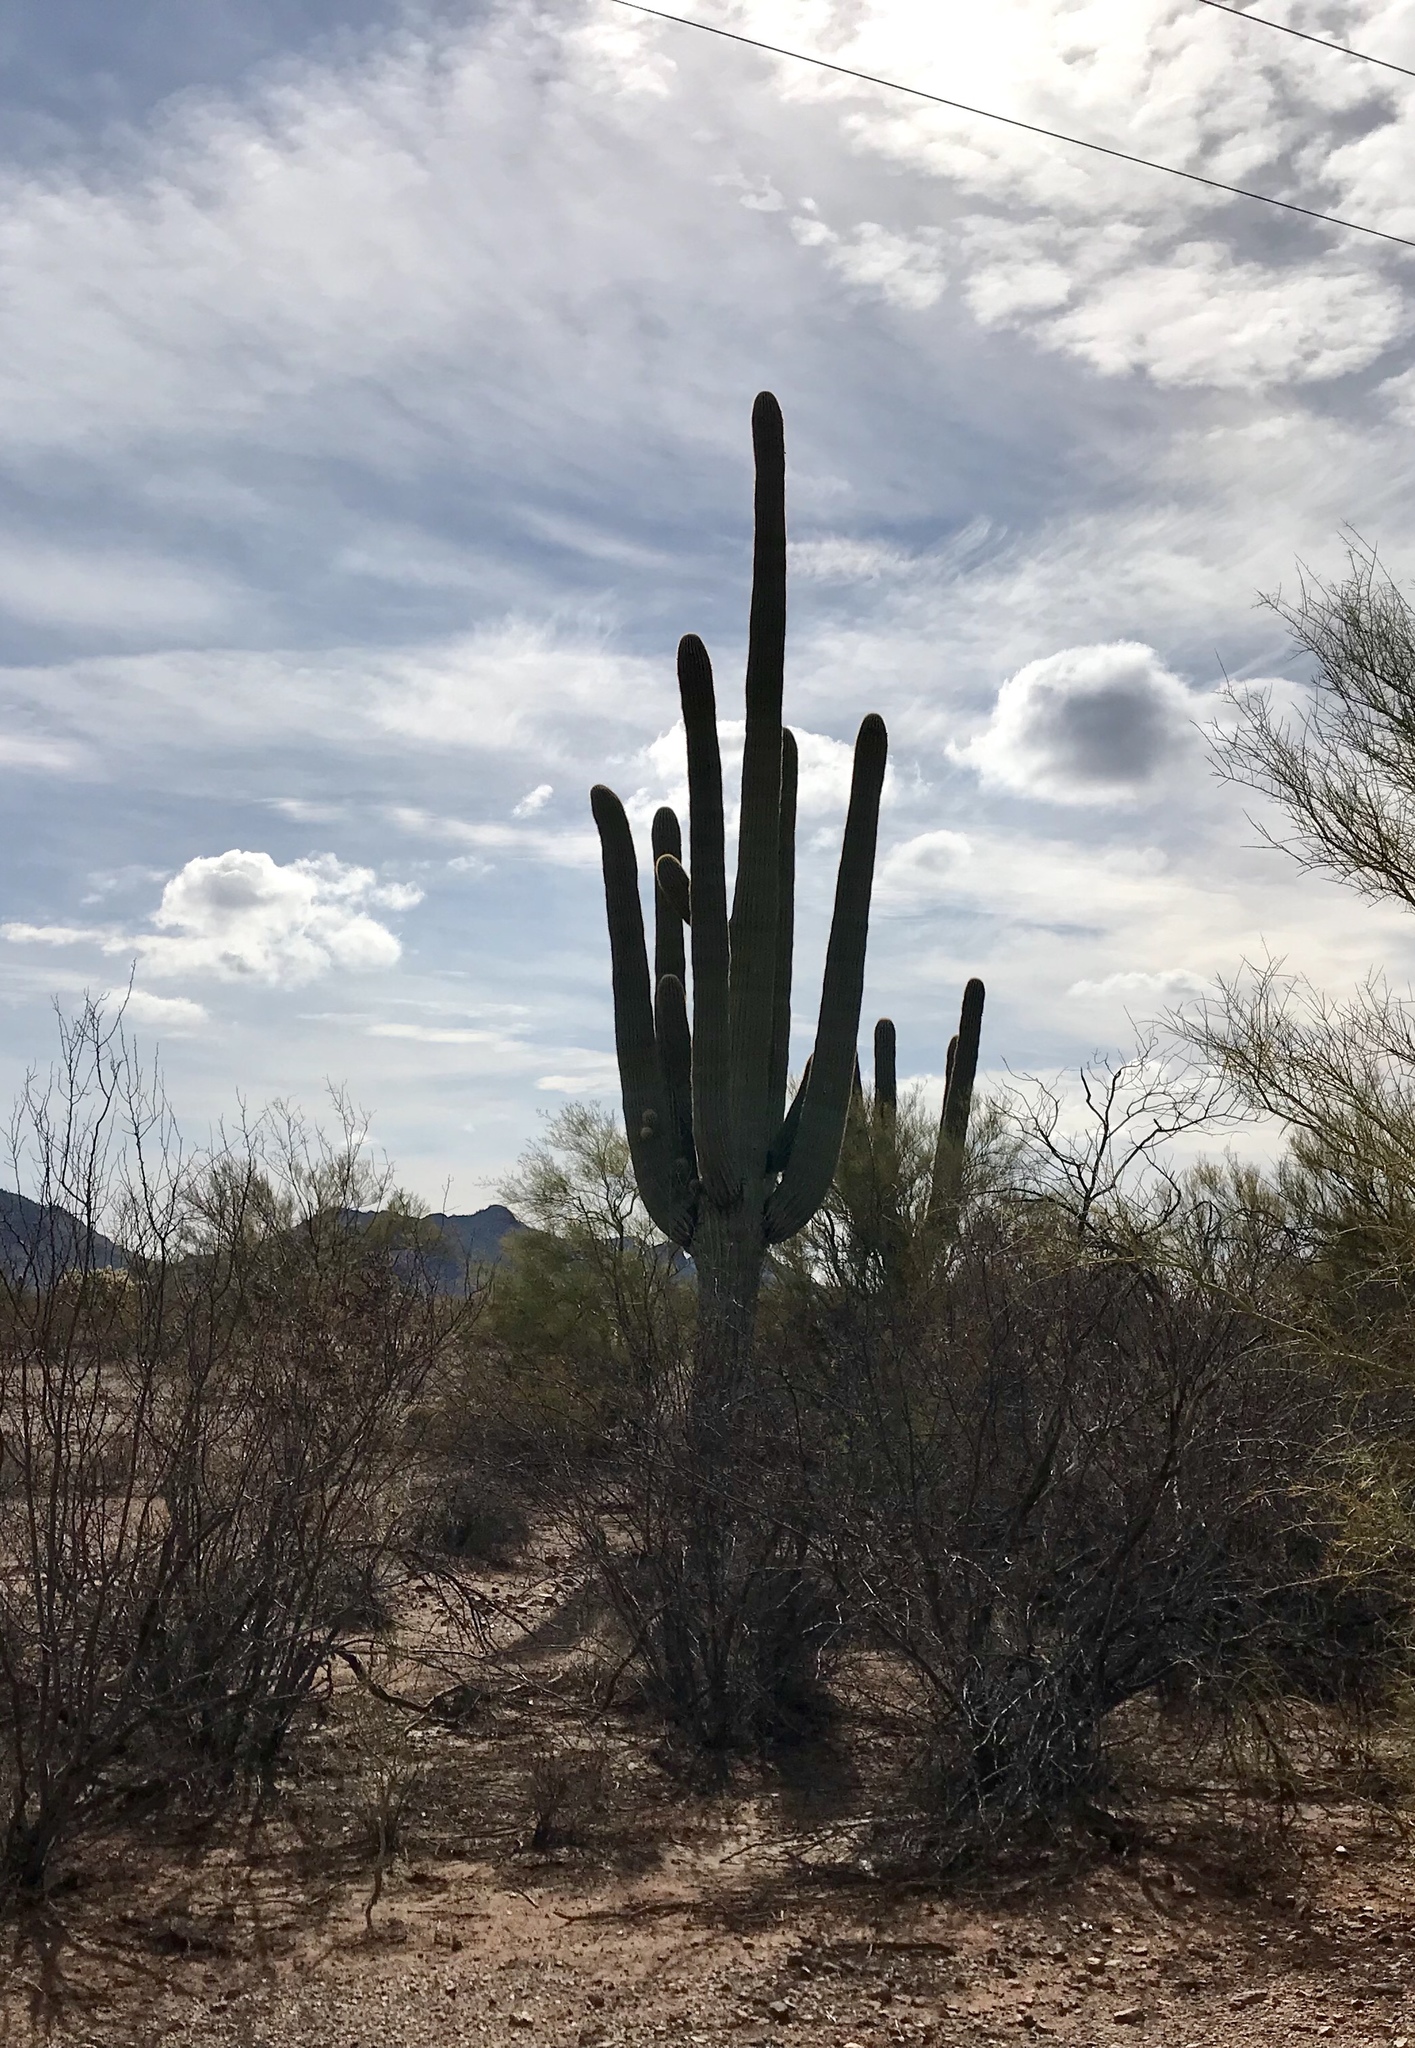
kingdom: Plantae
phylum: Tracheophyta
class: Magnoliopsida
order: Caryophyllales
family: Cactaceae
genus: Carnegiea
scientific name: Carnegiea gigantea
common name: Saguaro
